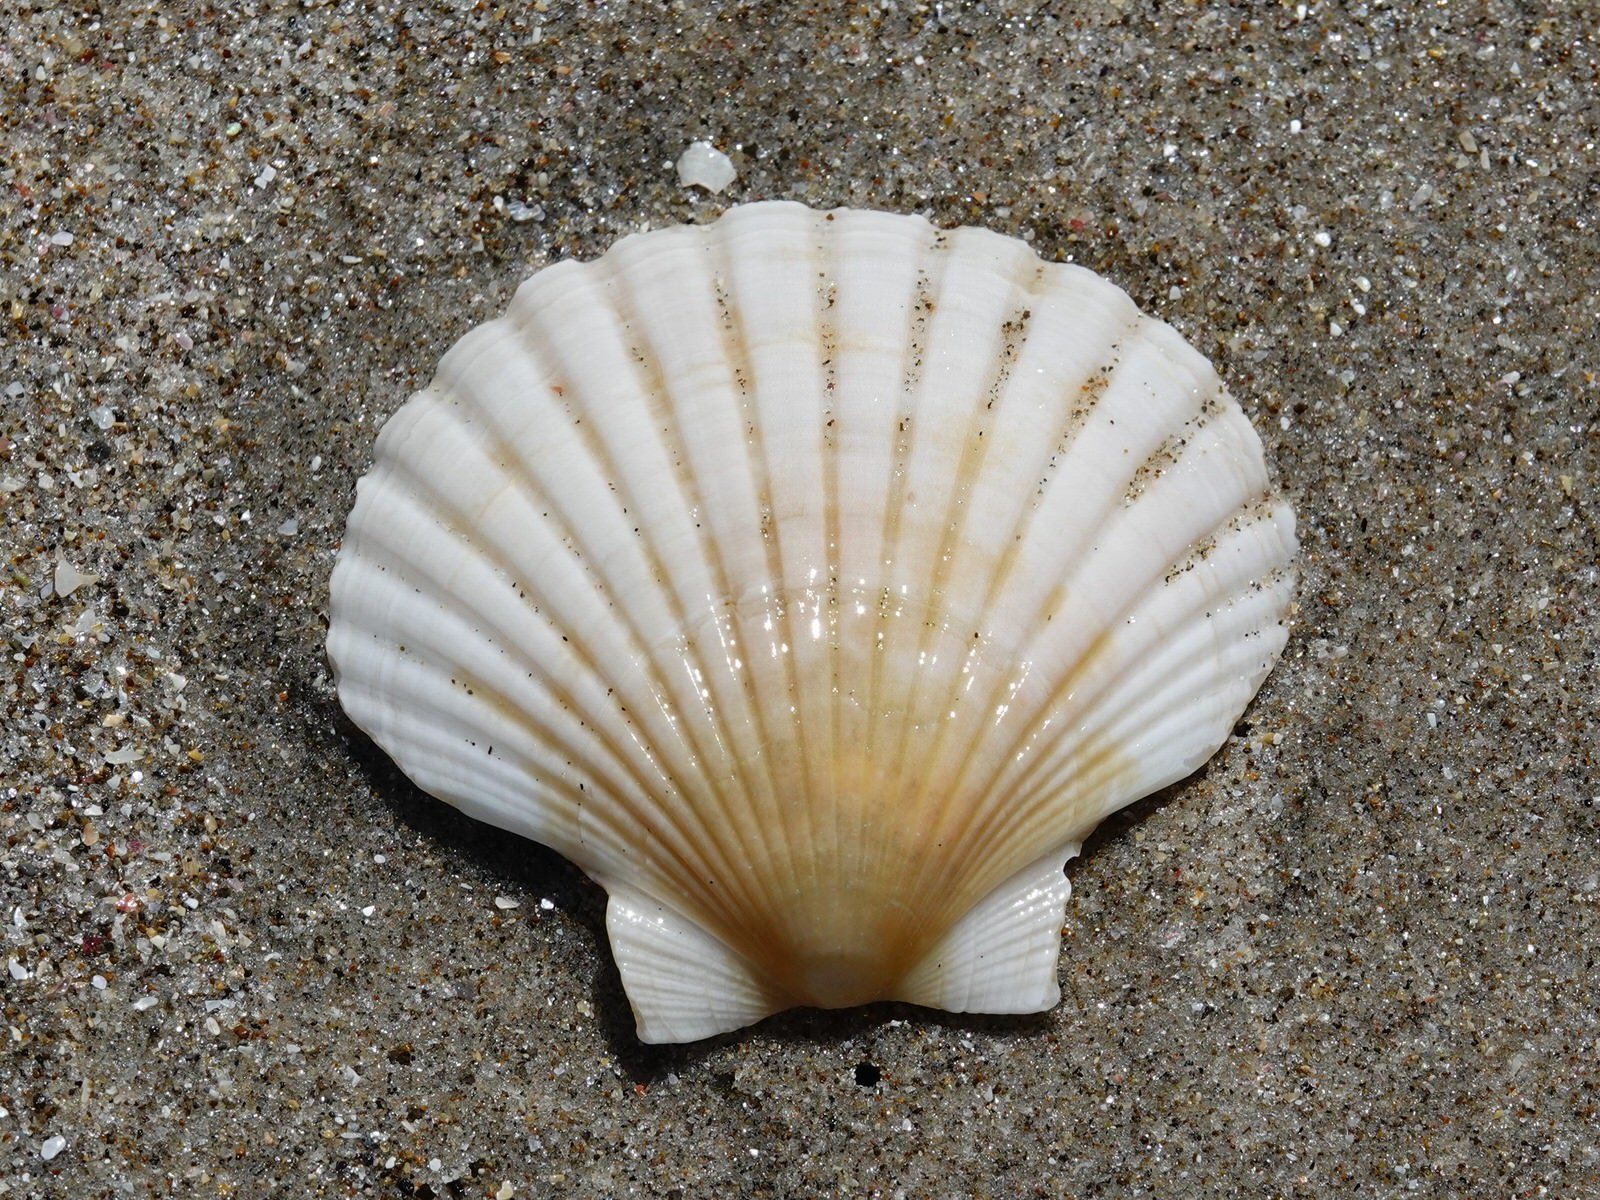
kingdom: Animalia
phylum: Mollusca
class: Bivalvia
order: Pectinida
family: Pectinidae
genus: Pecten
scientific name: Pecten novaezelandiae
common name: New zealand scallop
